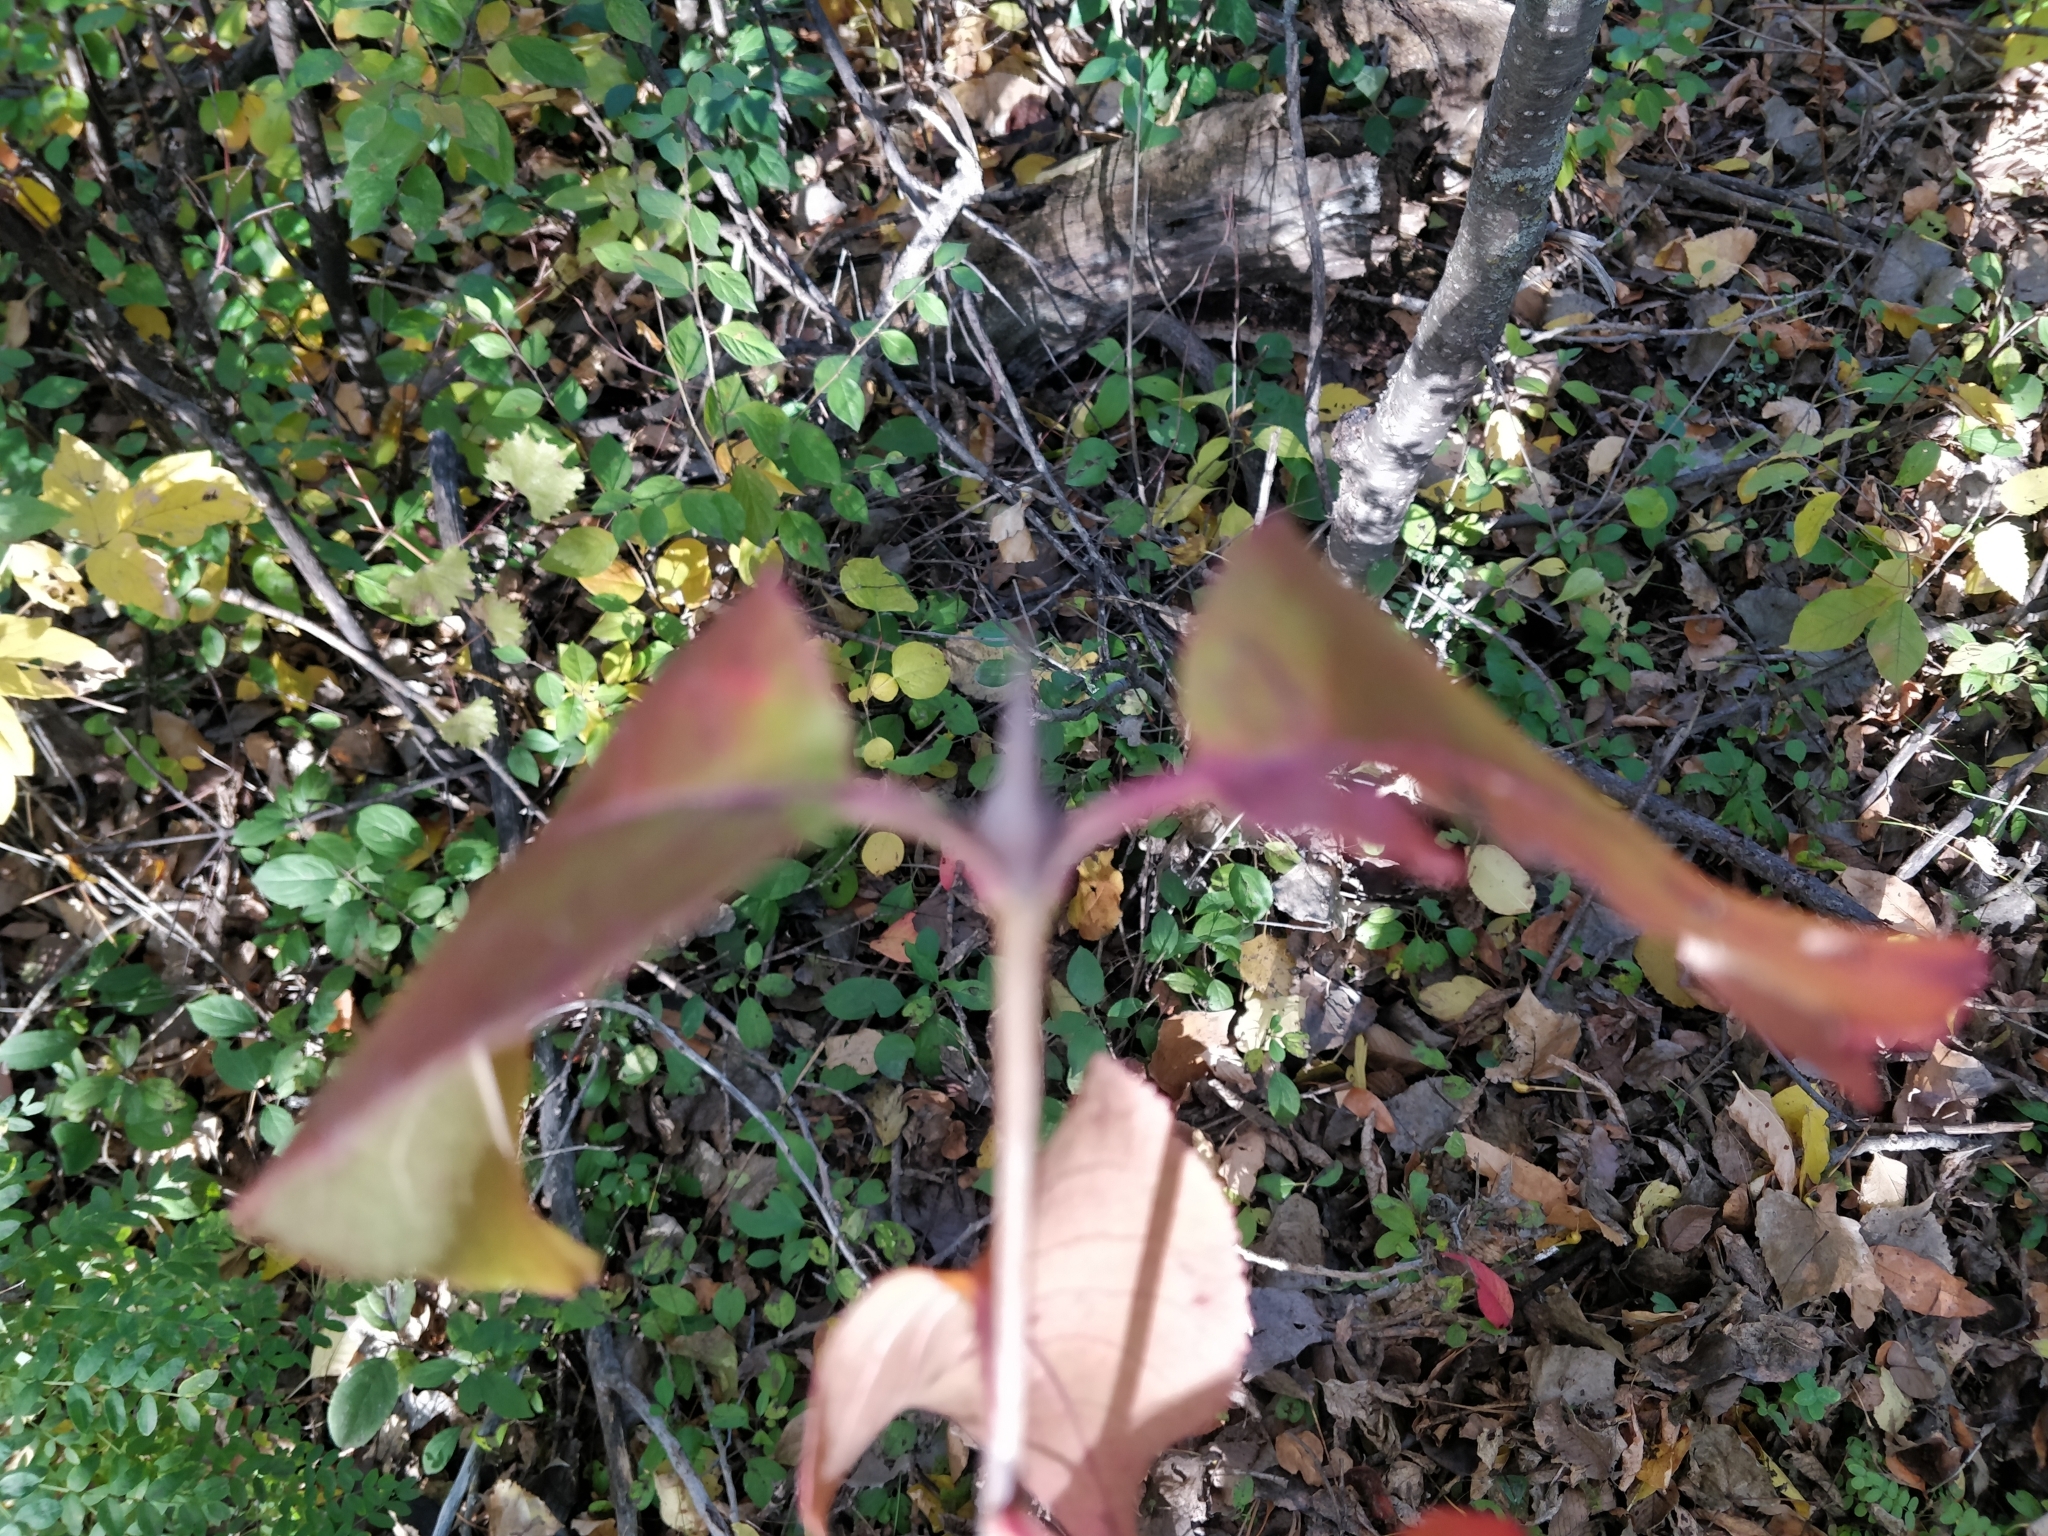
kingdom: Plantae
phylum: Tracheophyta
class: Magnoliopsida
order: Dipsacales
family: Viburnaceae
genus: Viburnum
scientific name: Viburnum lentago
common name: Black haw
